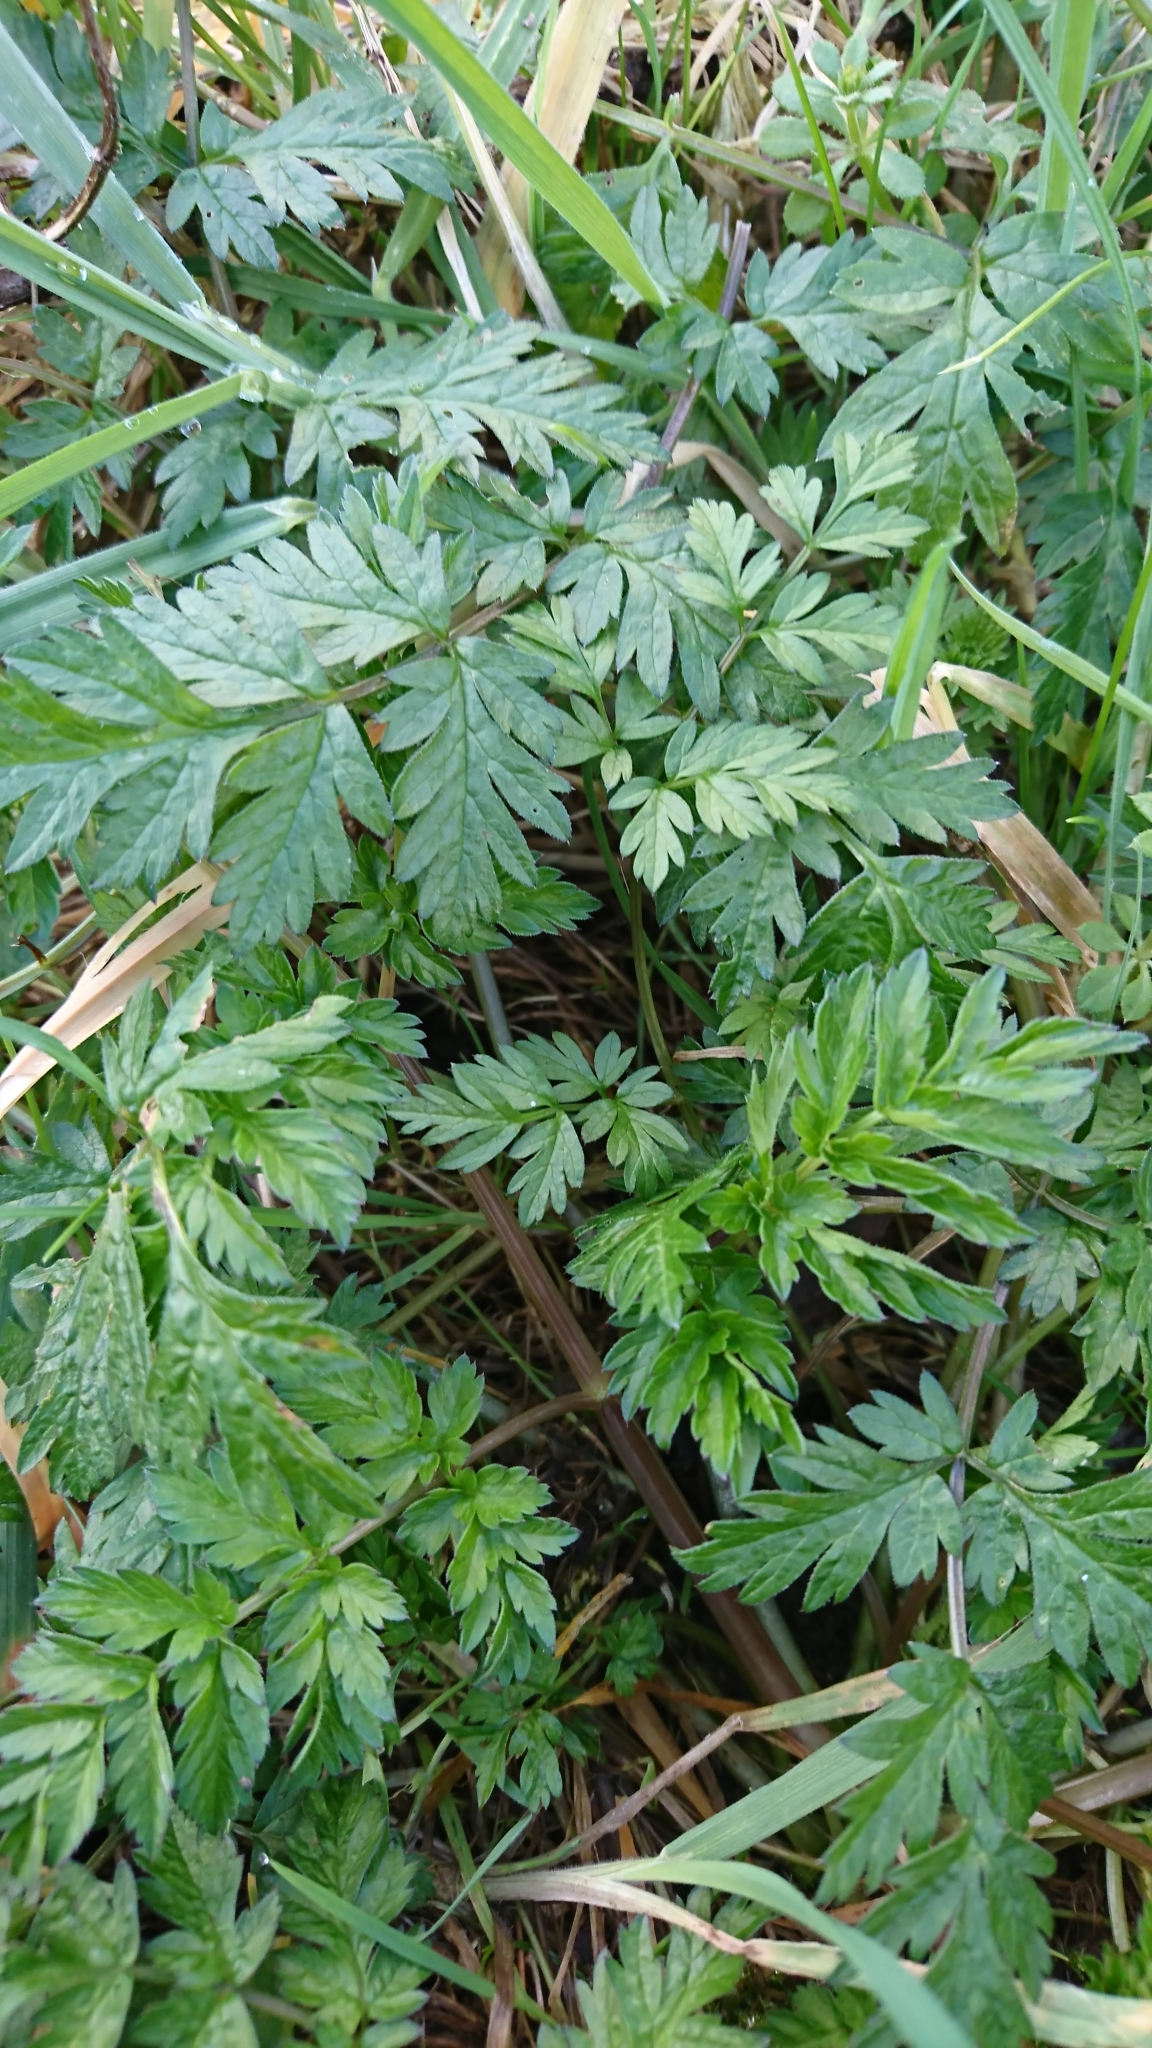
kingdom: Plantae
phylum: Tracheophyta
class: Magnoliopsida
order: Apiales
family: Apiaceae
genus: Anthriscus
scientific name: Anthriscus sylvestris
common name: Cow parsley
